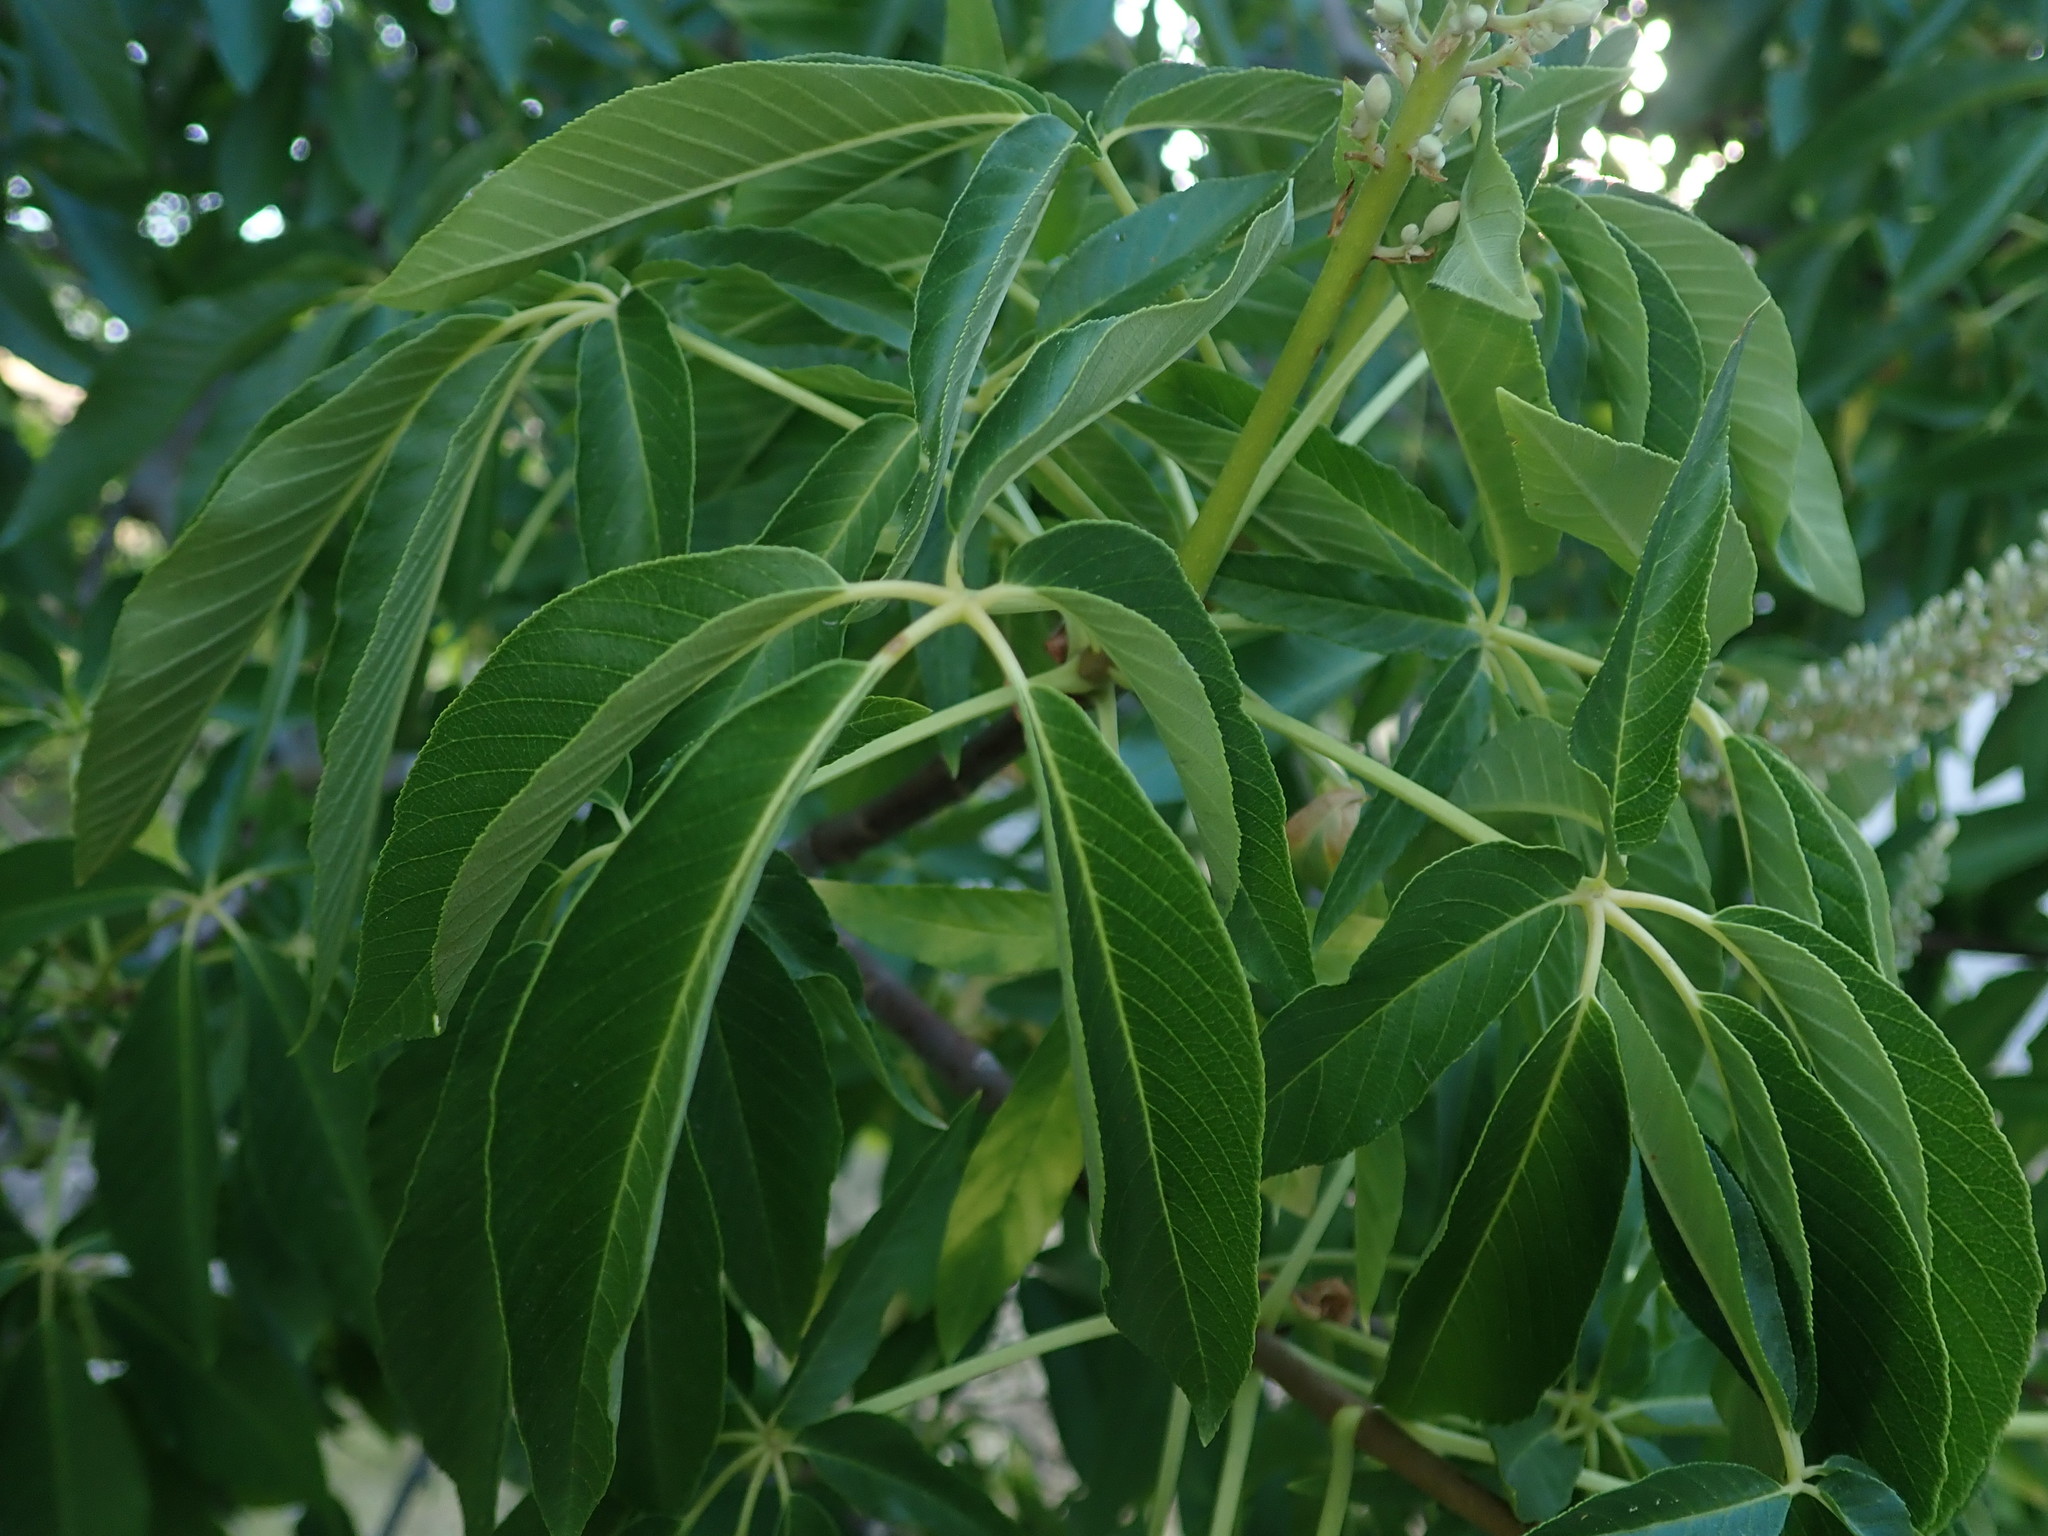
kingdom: Plantae
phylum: Tracheophyta
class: Magnoliopsida
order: Sapindales
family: Sapindaceae
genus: Aesculus
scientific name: Aesculus californica
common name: California buckeye
